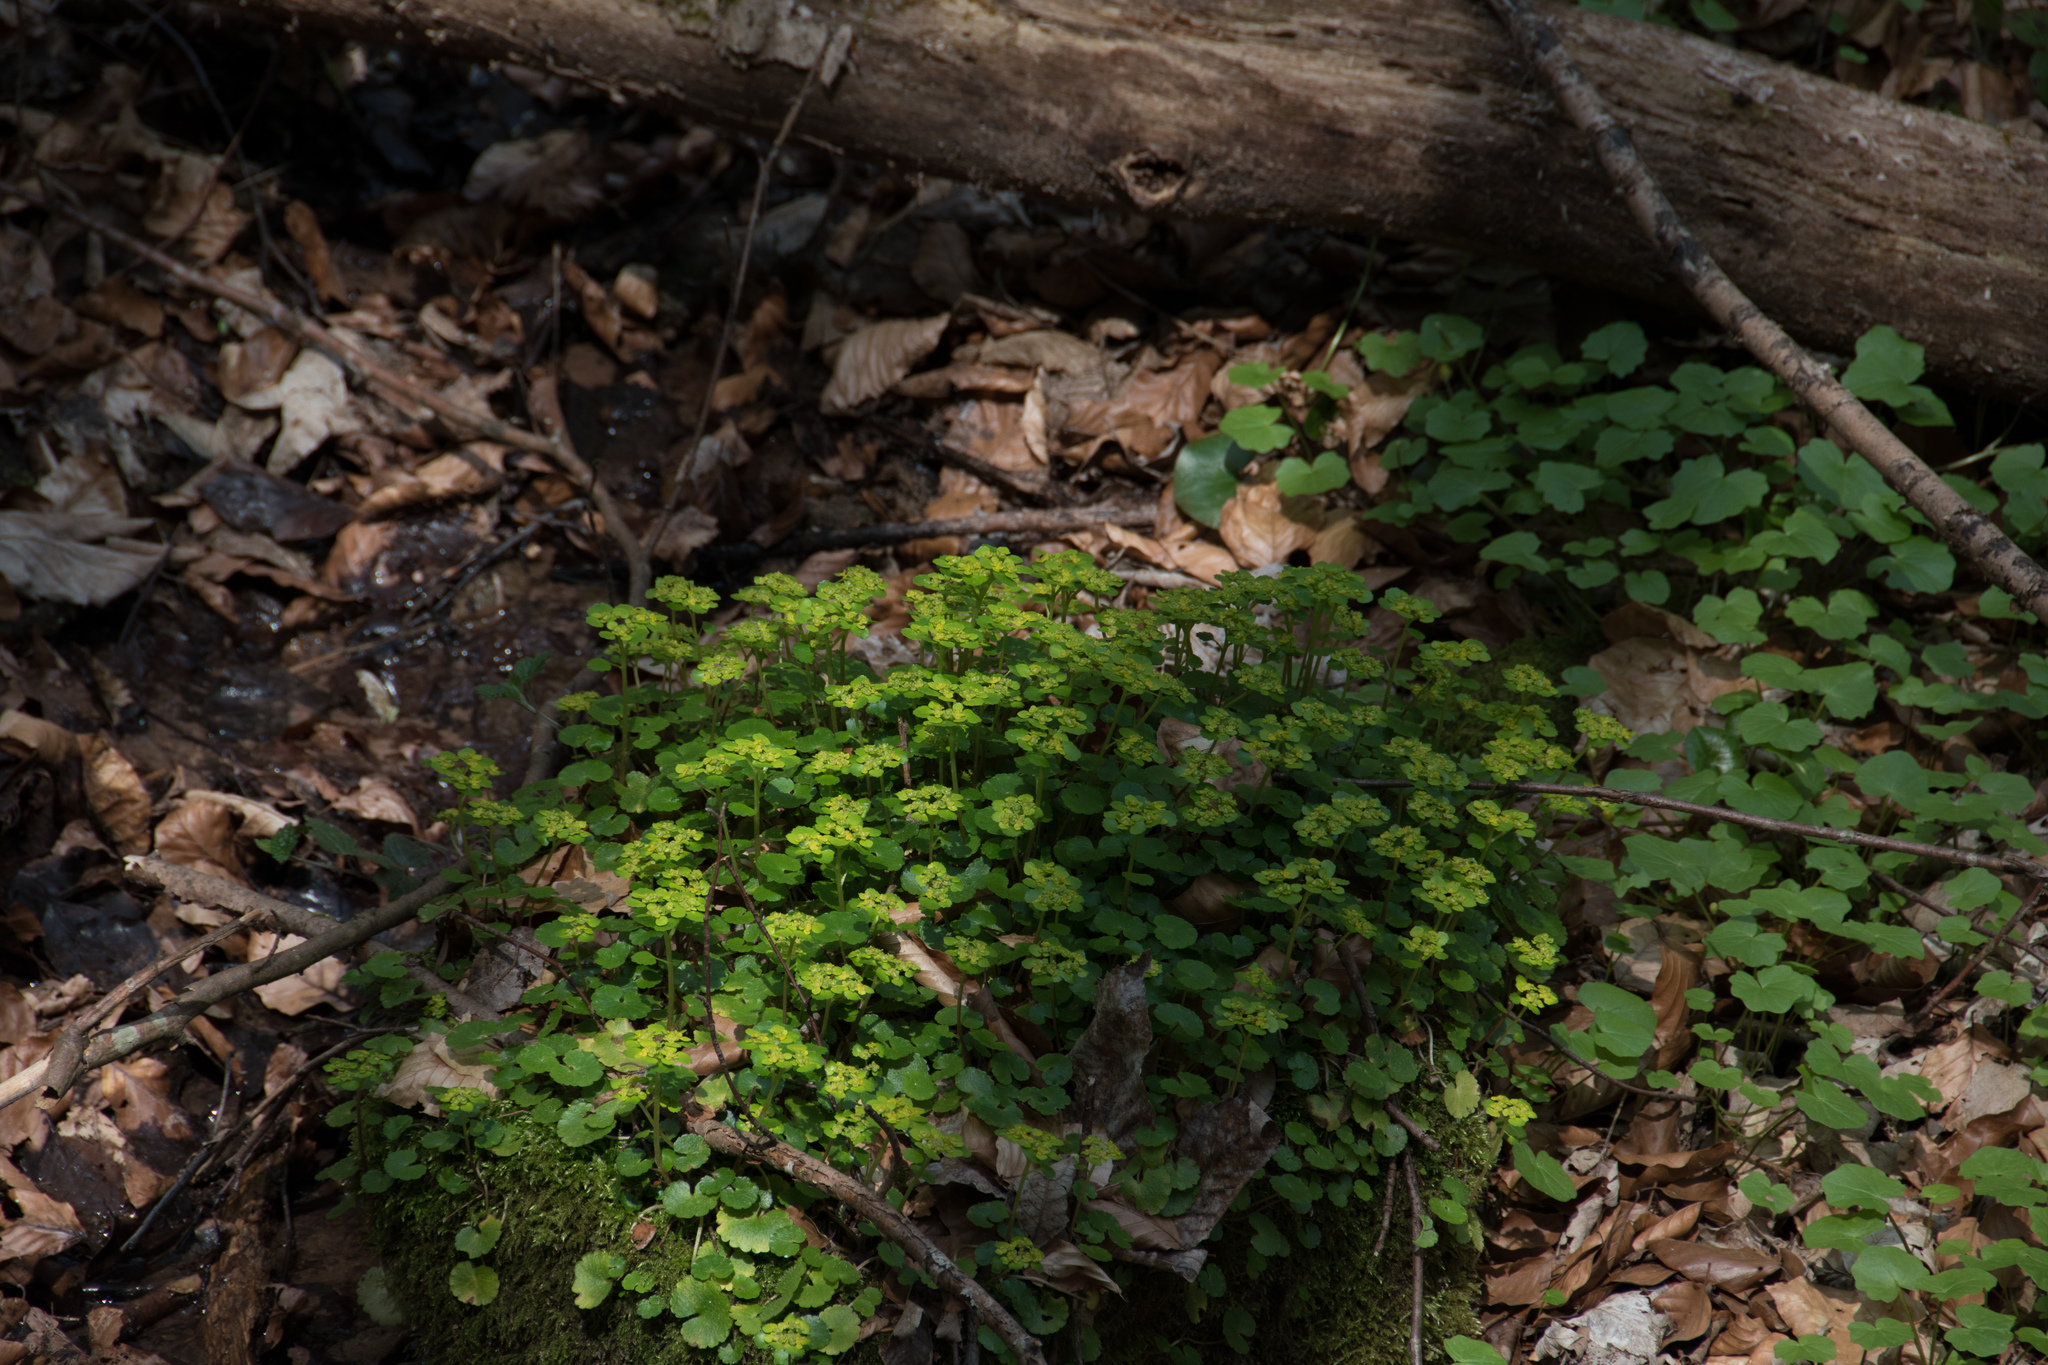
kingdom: Plantae
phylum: Tracheophyta
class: Magnoliopsida
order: Saxifragales
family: Saxifragaceae
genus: Chrysosplenium
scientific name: Chrysosplenium alternifolium
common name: Alternate-leaved golden-saxifrage
